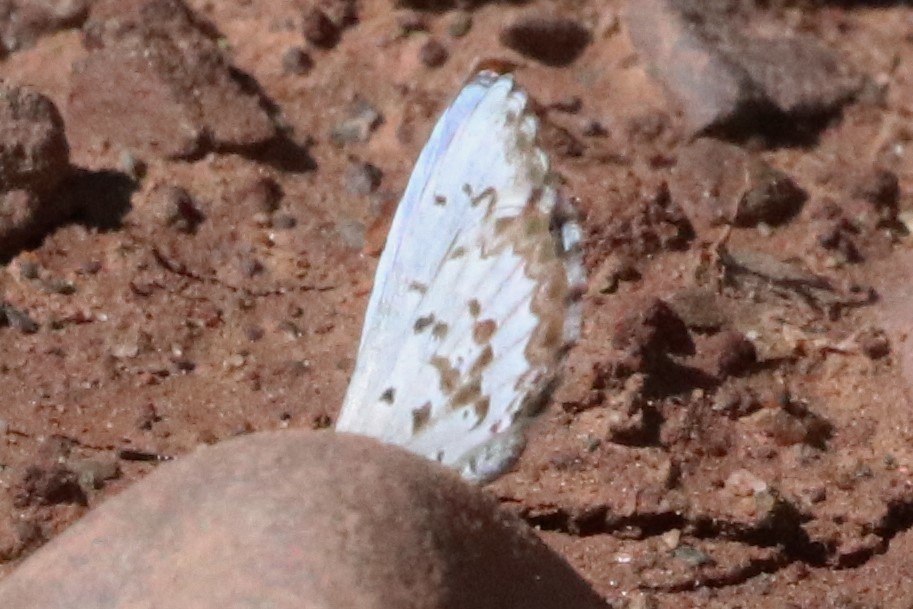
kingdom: Animalia
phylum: Arthropoda
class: Insecta
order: Lepidoptera
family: Lycaenidae
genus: Celastrina
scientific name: Celastrina lucia
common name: Lucia azure
